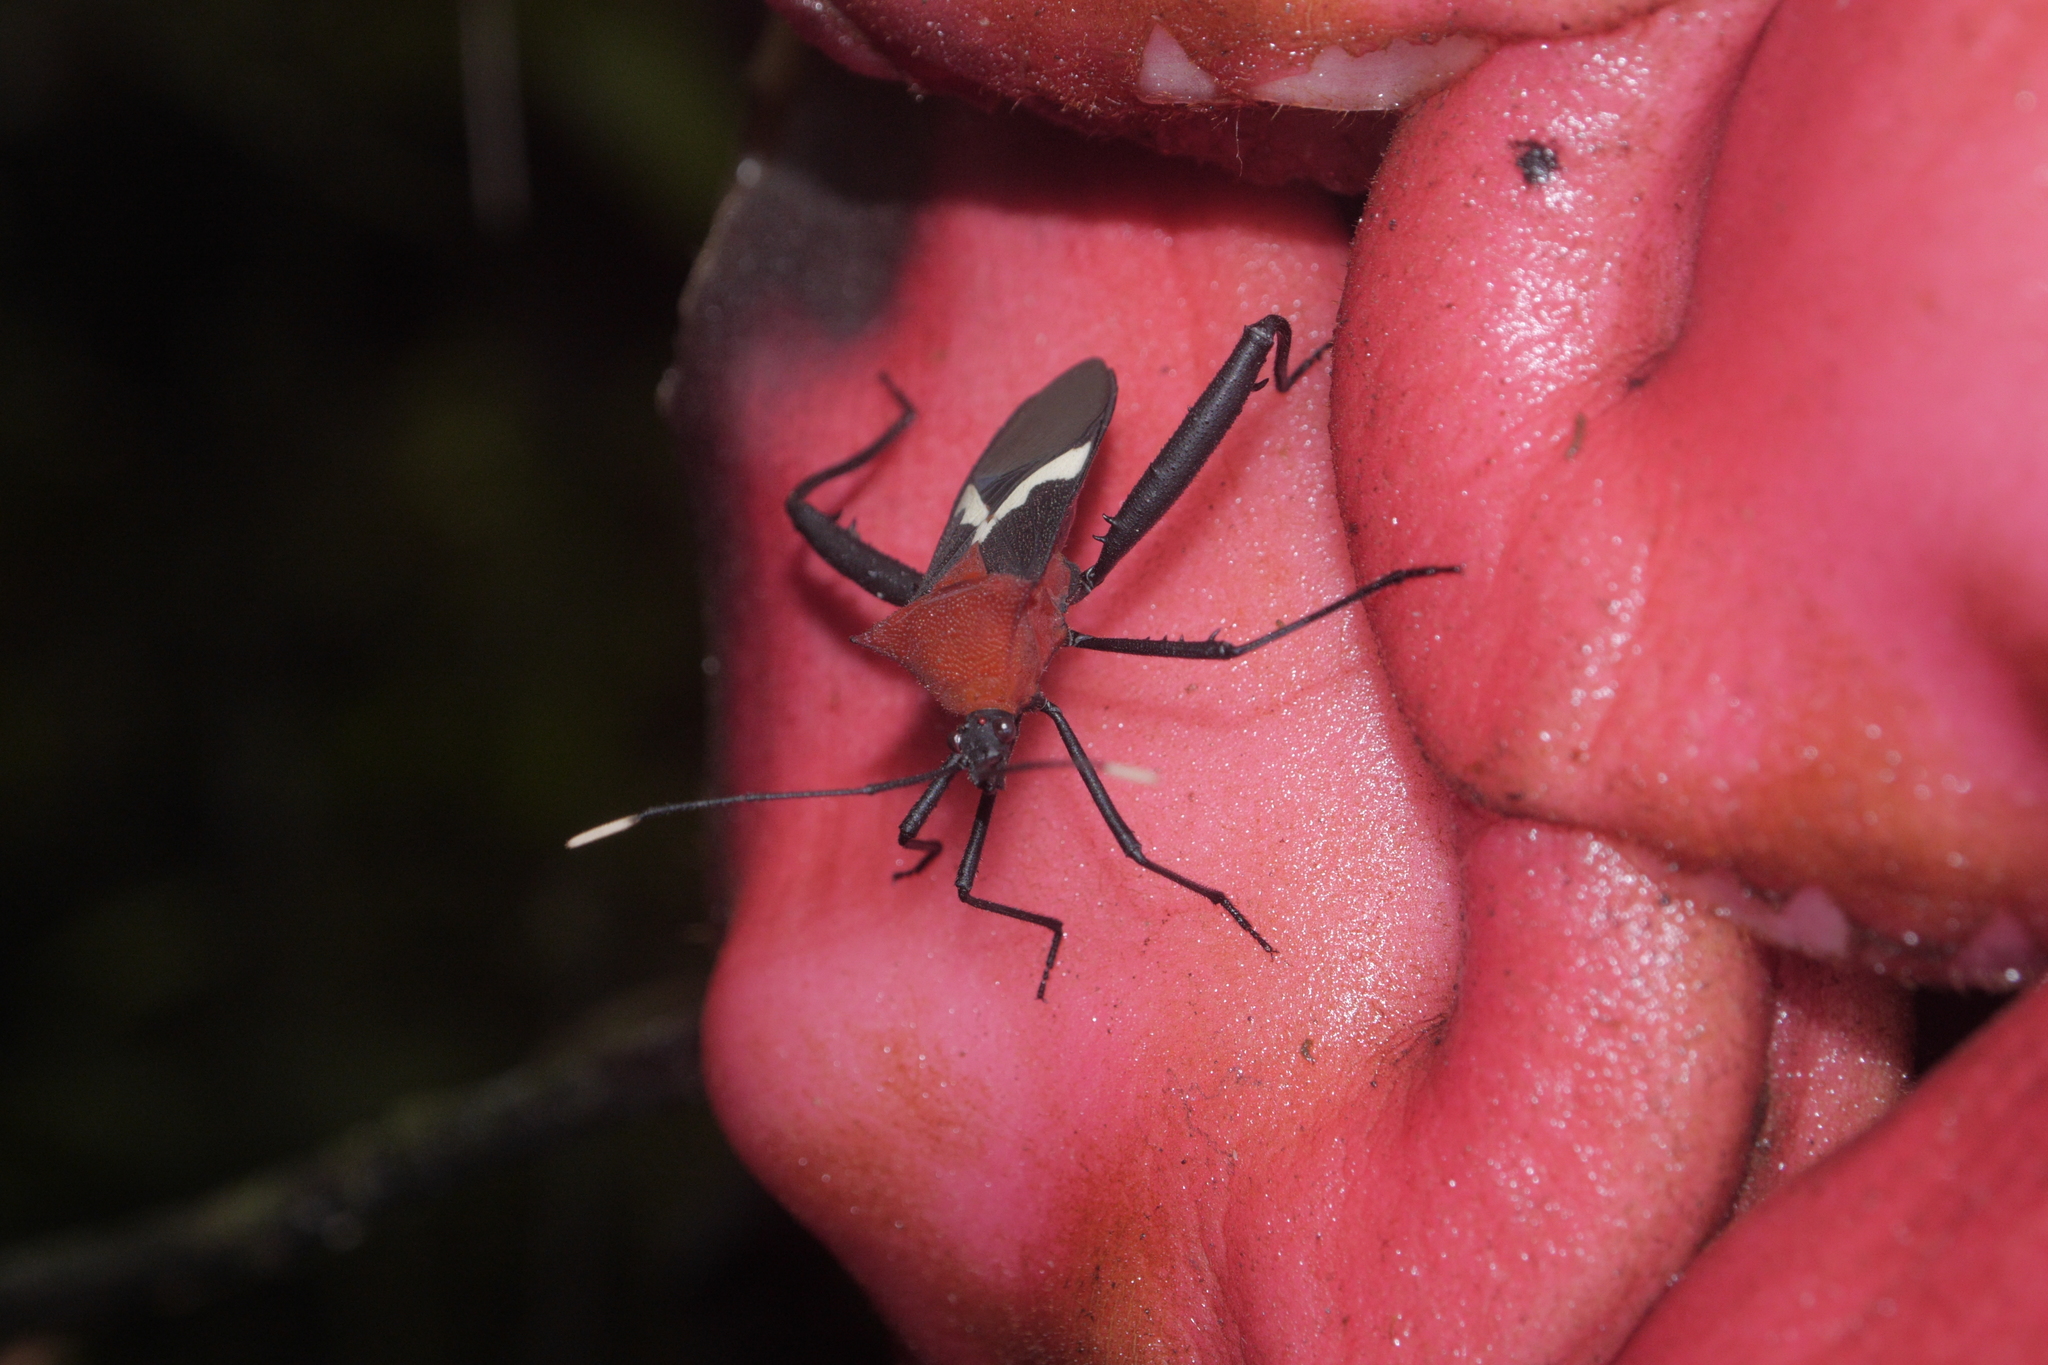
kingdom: Animalia
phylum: Arthropoda
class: Insecta
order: Hemiptera
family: Coreidae
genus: Leptoscelis
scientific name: Leptoscelis militaris
